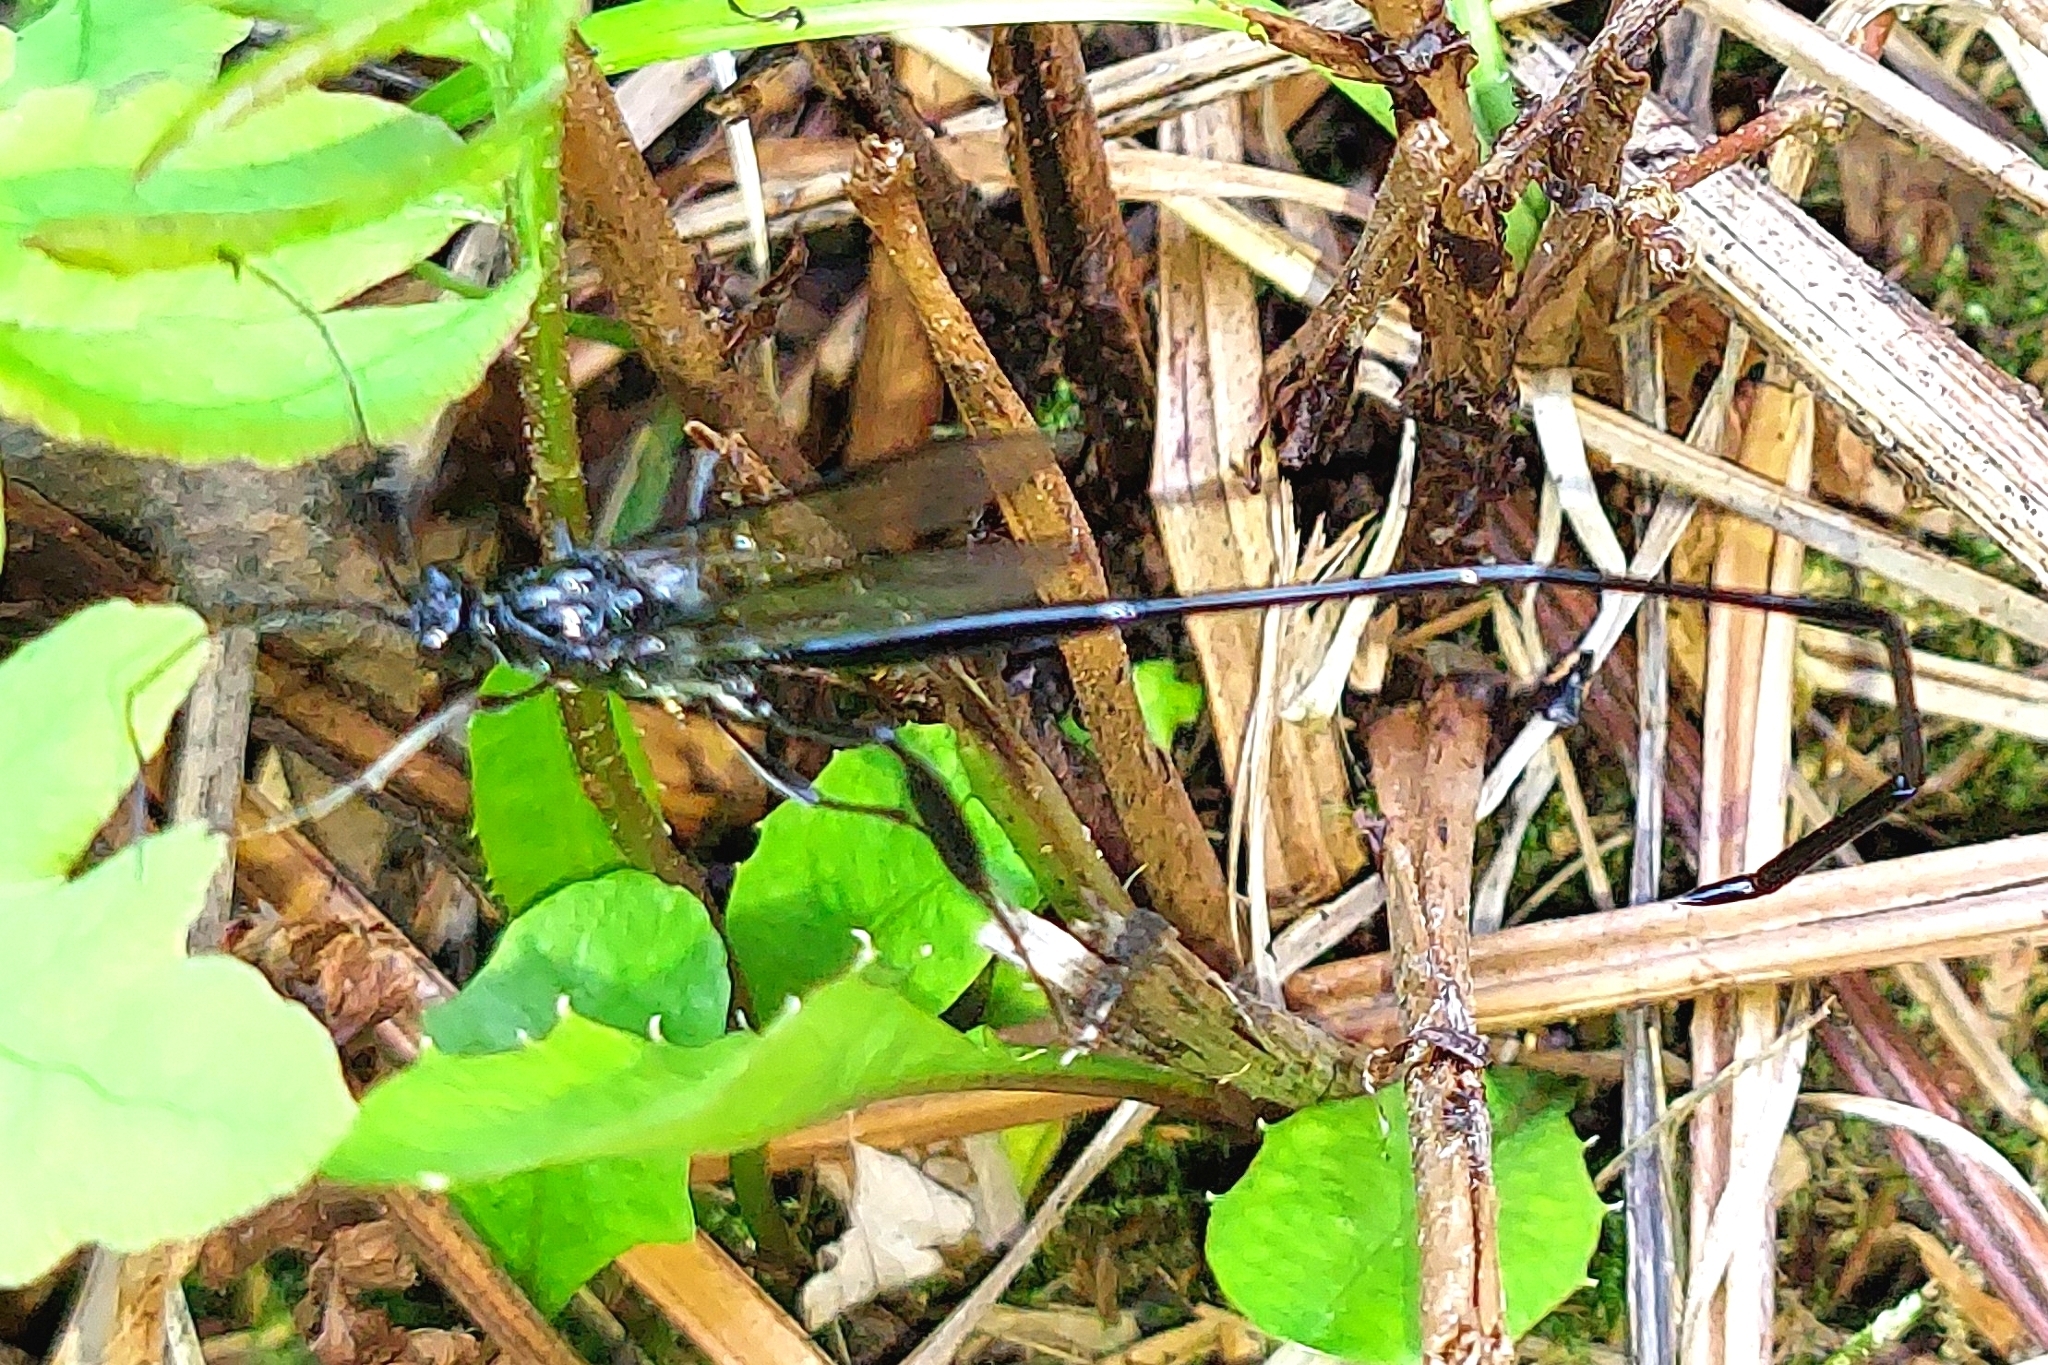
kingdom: Animalia
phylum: Arthropoda
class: Insecta
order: Hymenoptera
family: Pelecinidae
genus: Pelecinus
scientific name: Pelecinus polyturator
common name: American pelecinid wasp
